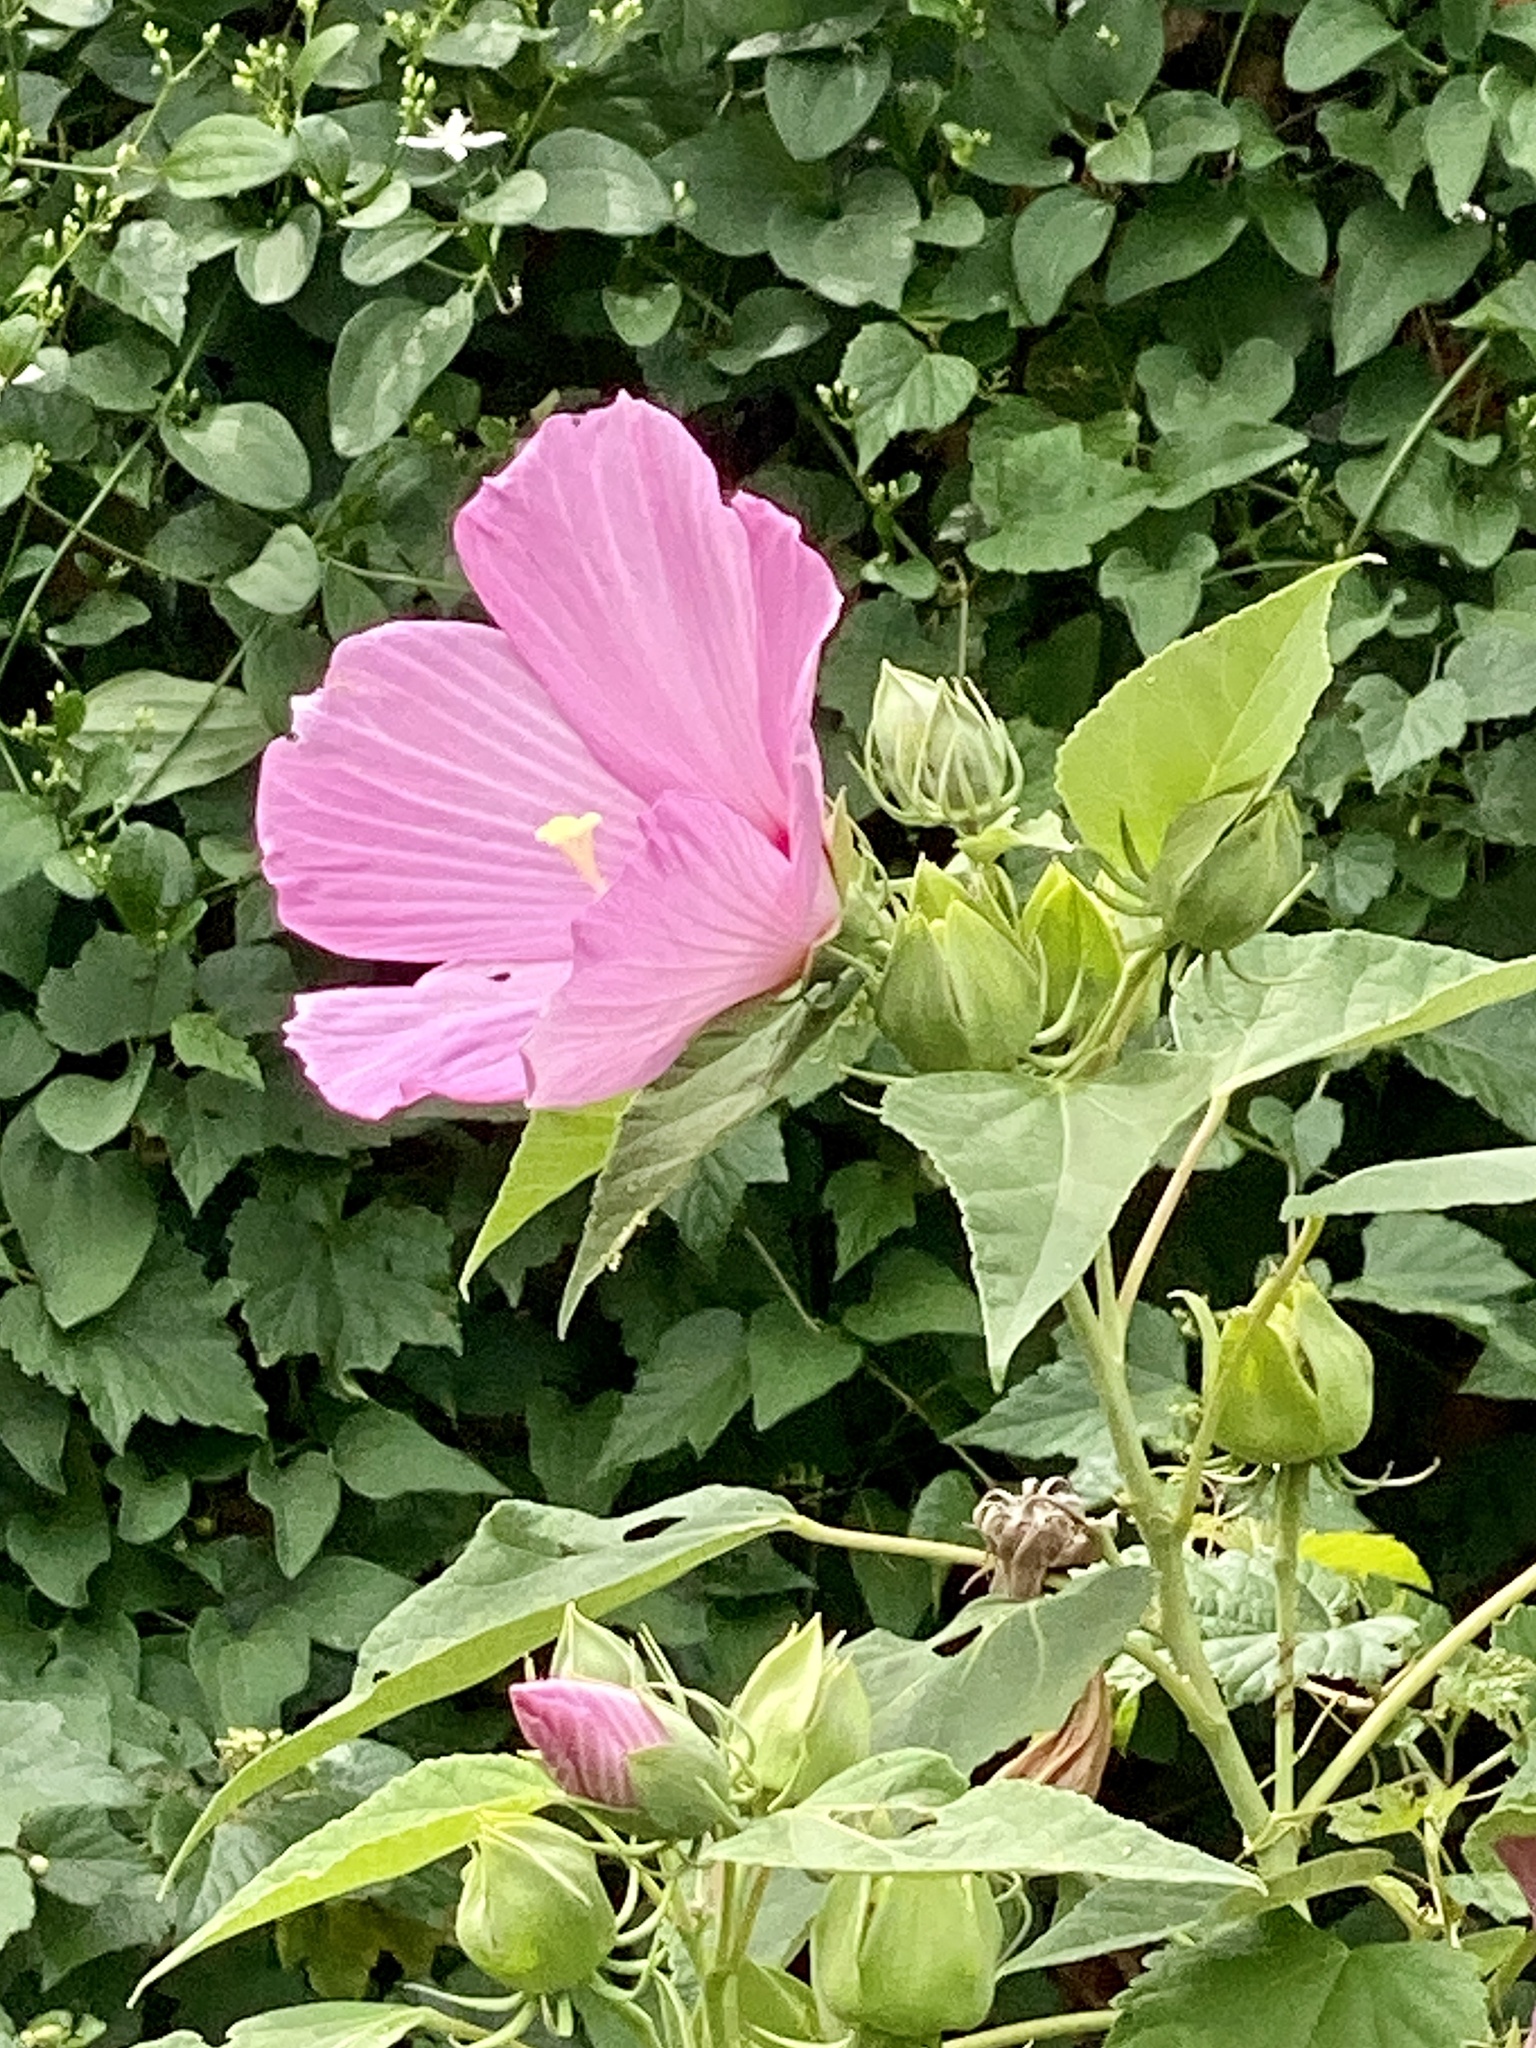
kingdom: Plantae
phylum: Tracheophyta
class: Magnoliopsida
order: Malvales
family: Malvaceae
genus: Hibiscus
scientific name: Hibiscus moscheutos
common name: Common rose-mallow
